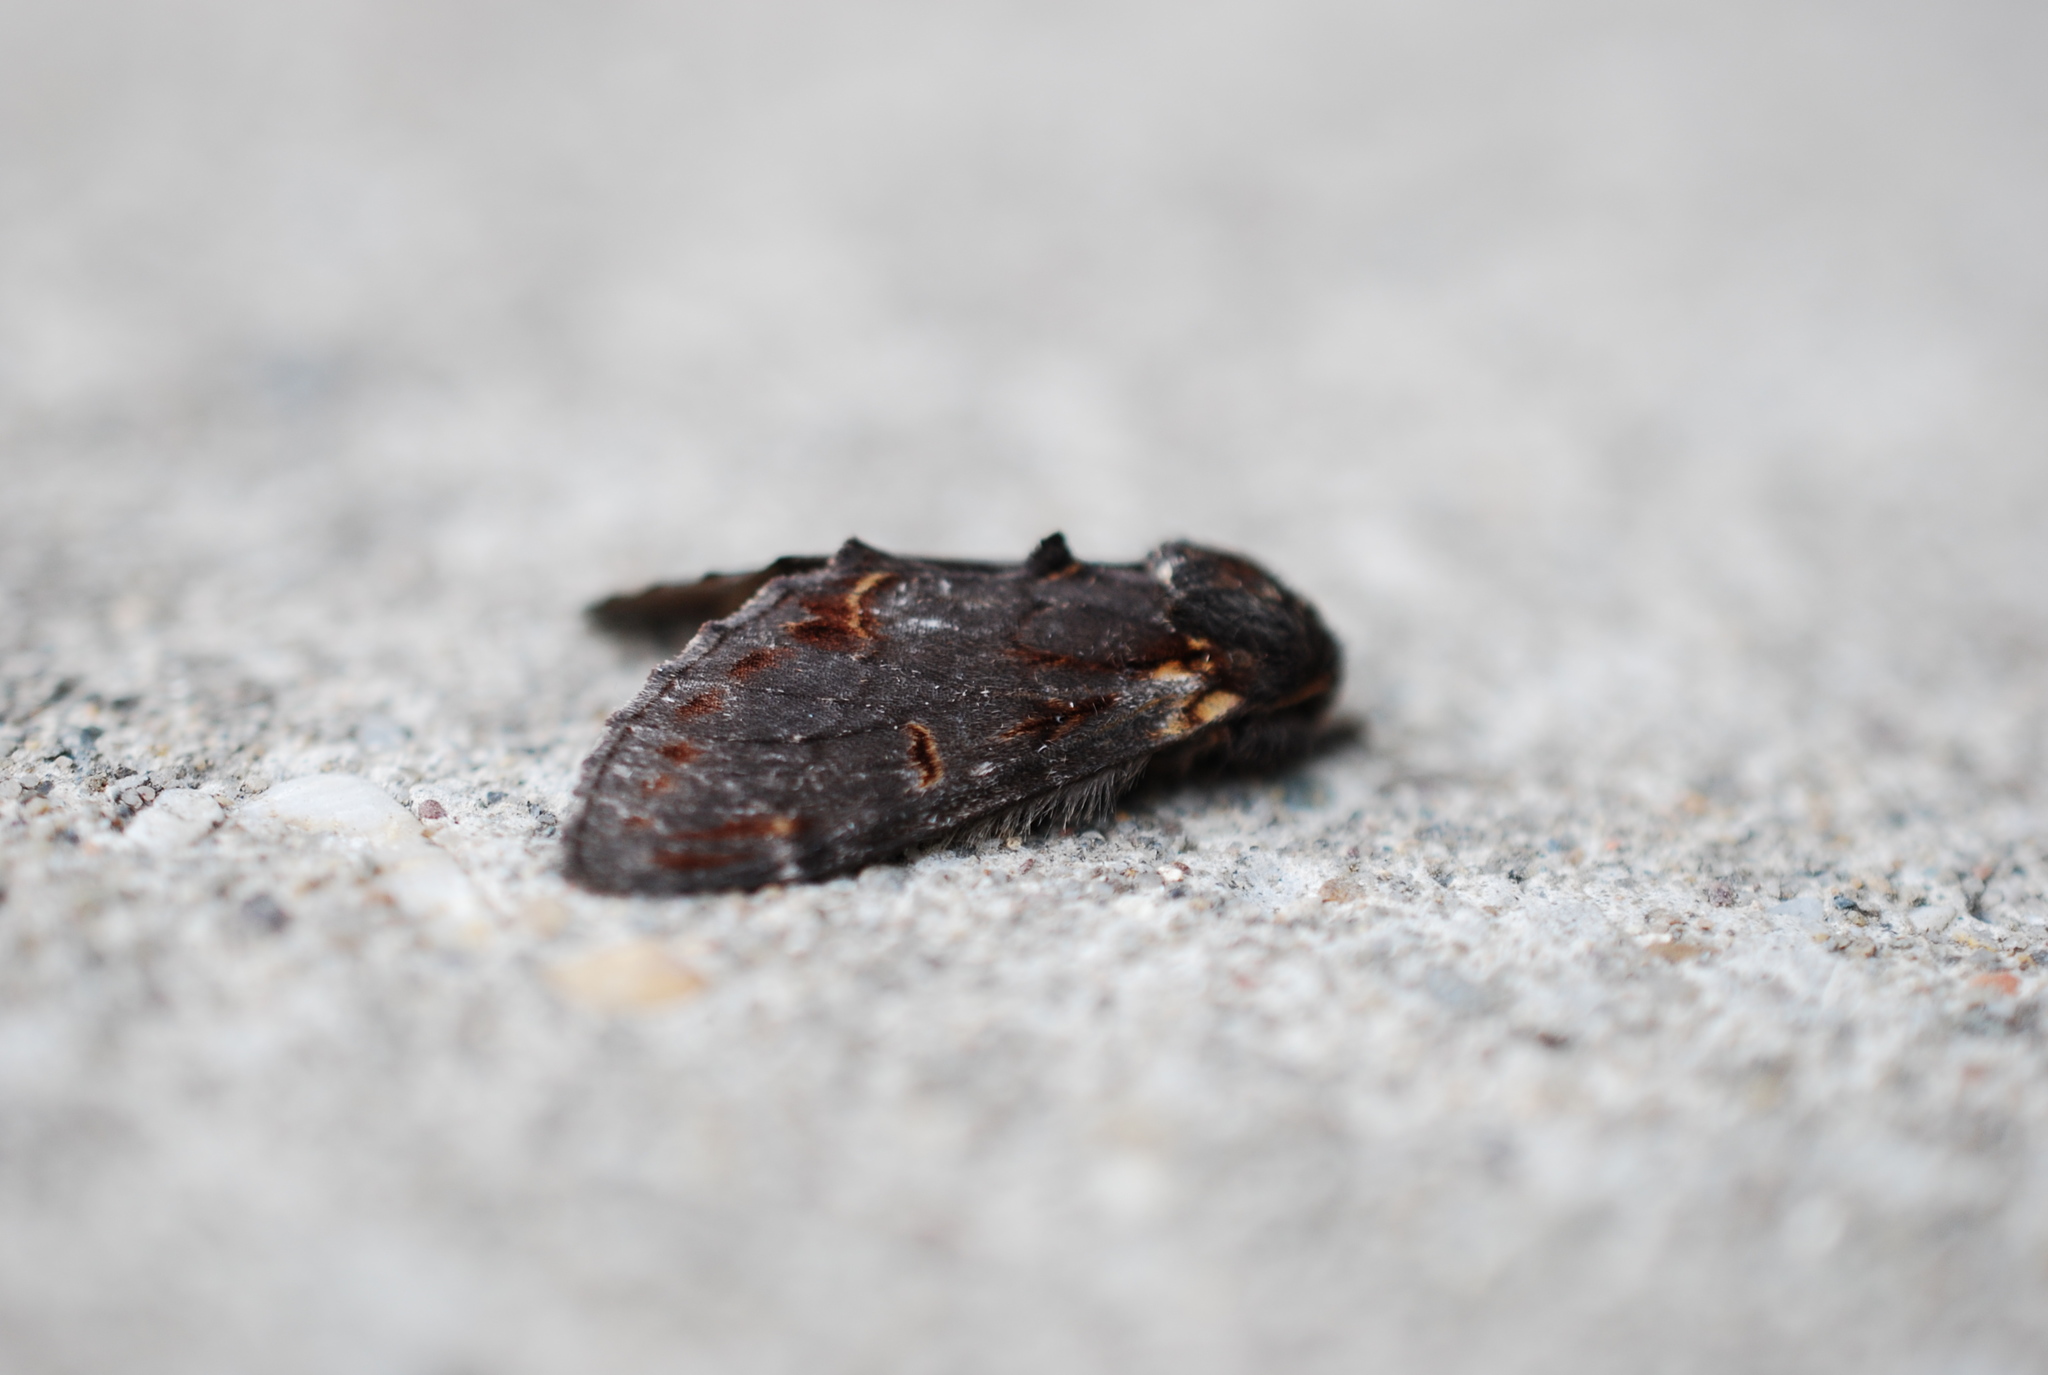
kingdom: Animalia
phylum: Arthropoda
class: Insecta
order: Lepidoptera
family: Notodontidae
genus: Notodonta
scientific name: Notodonta dromedarius
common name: Iron prominent
